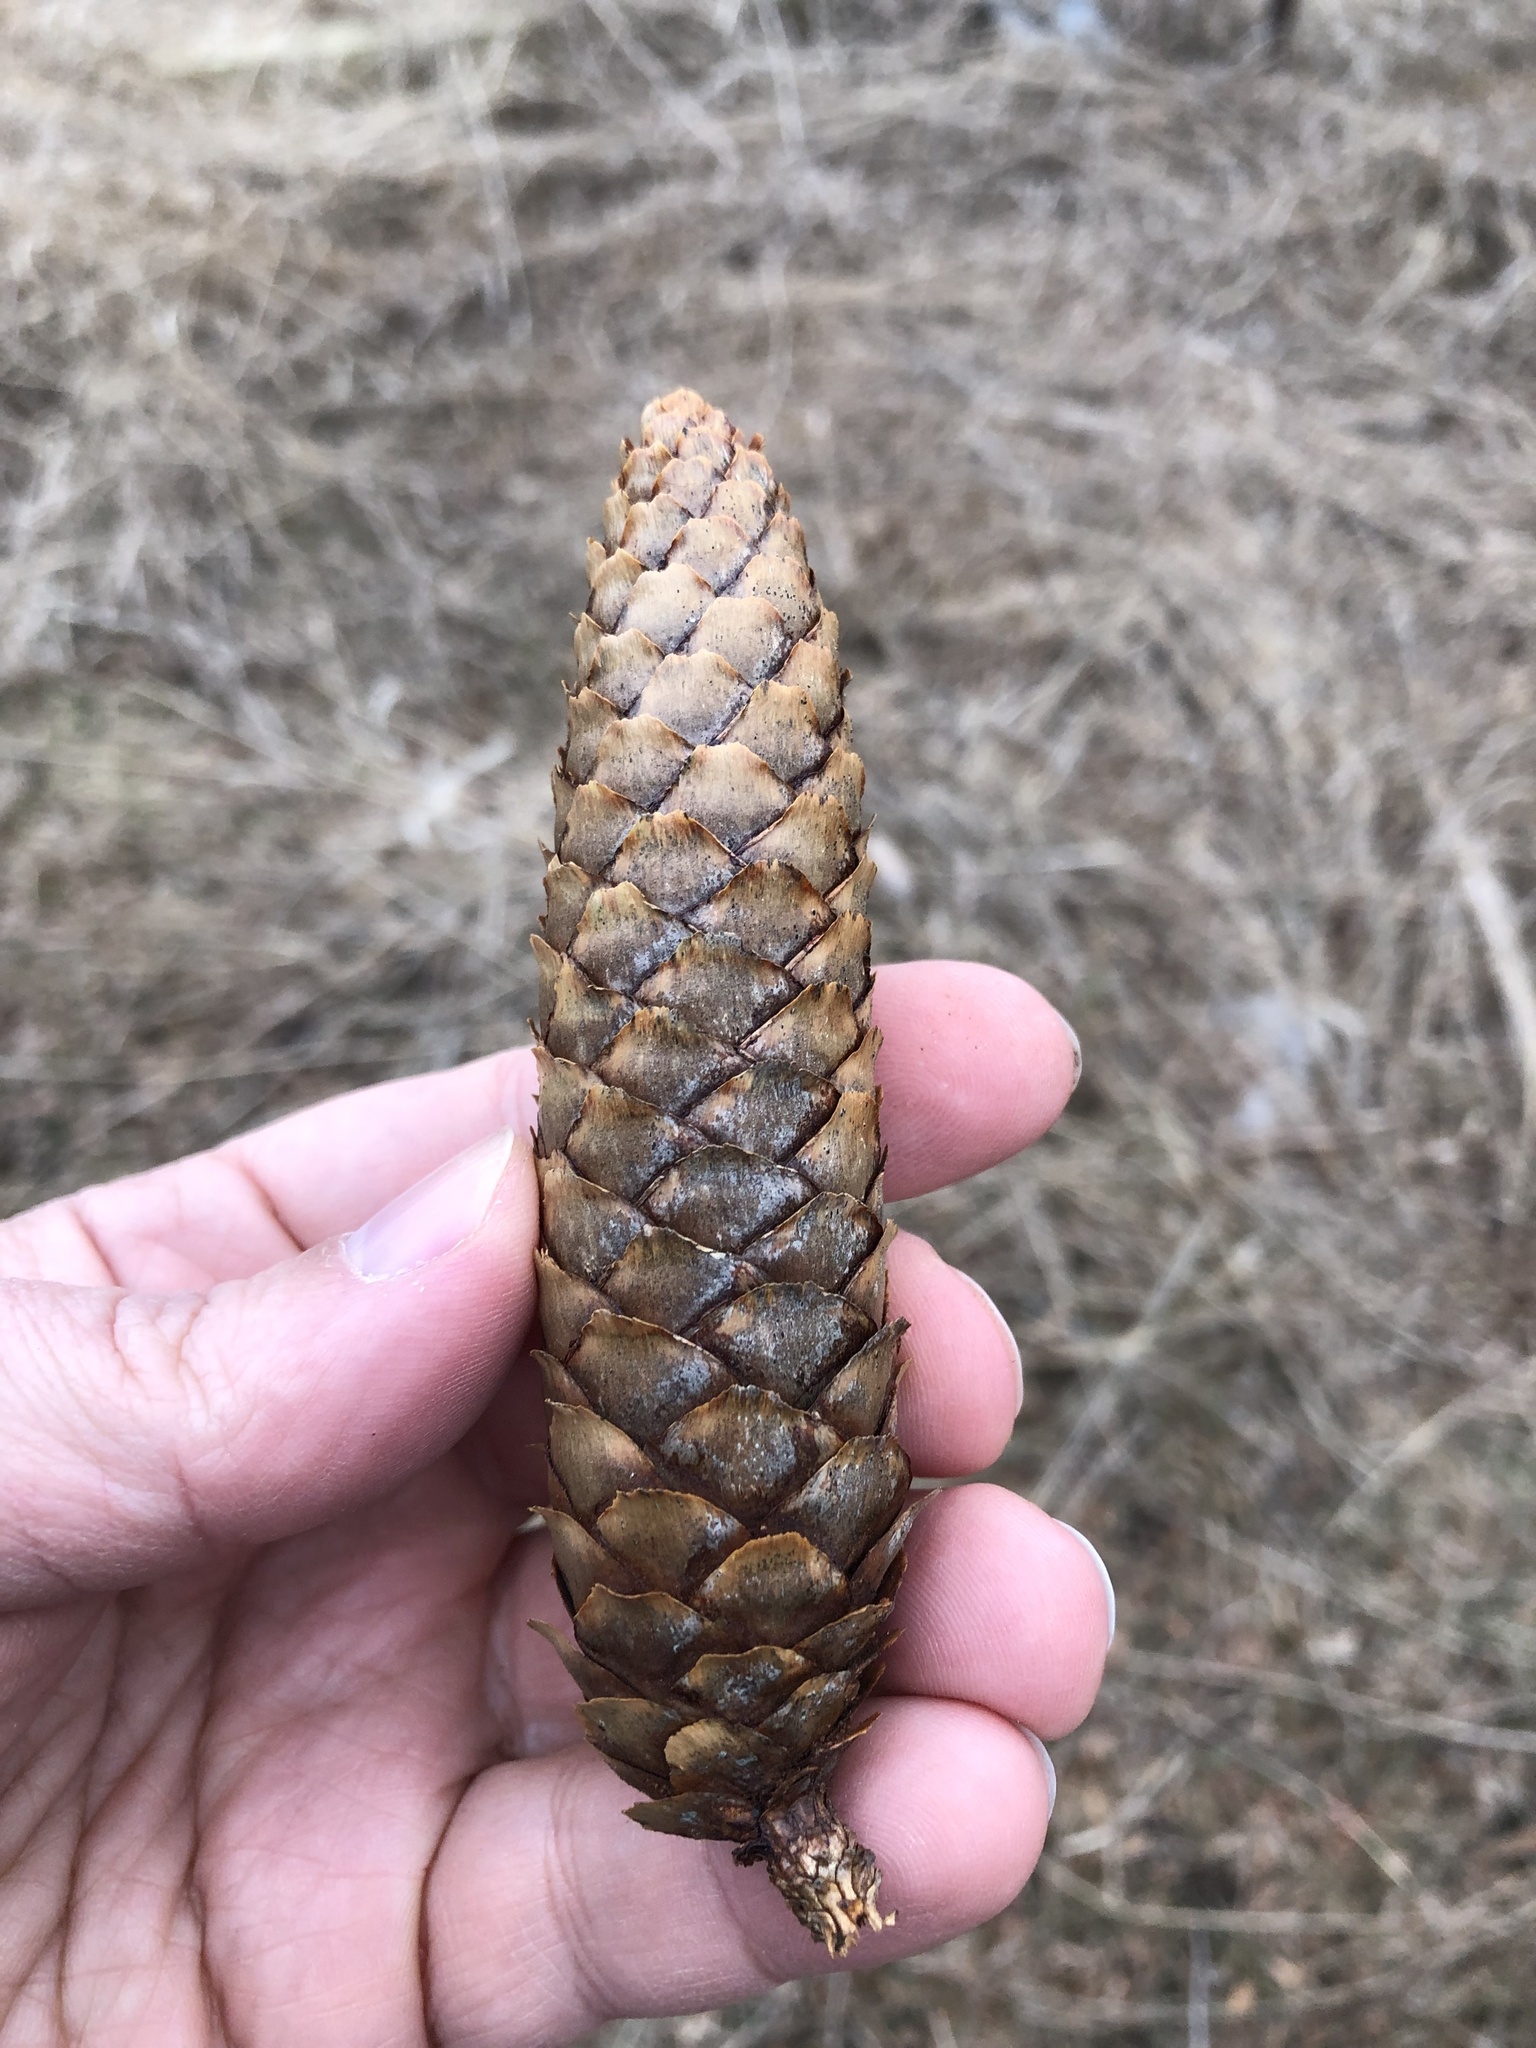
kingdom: Plantae
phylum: Tracheophyta
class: Pinopsida
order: Pinales
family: Pinaceae
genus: Picea
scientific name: Picea abies
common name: Norway spruce
